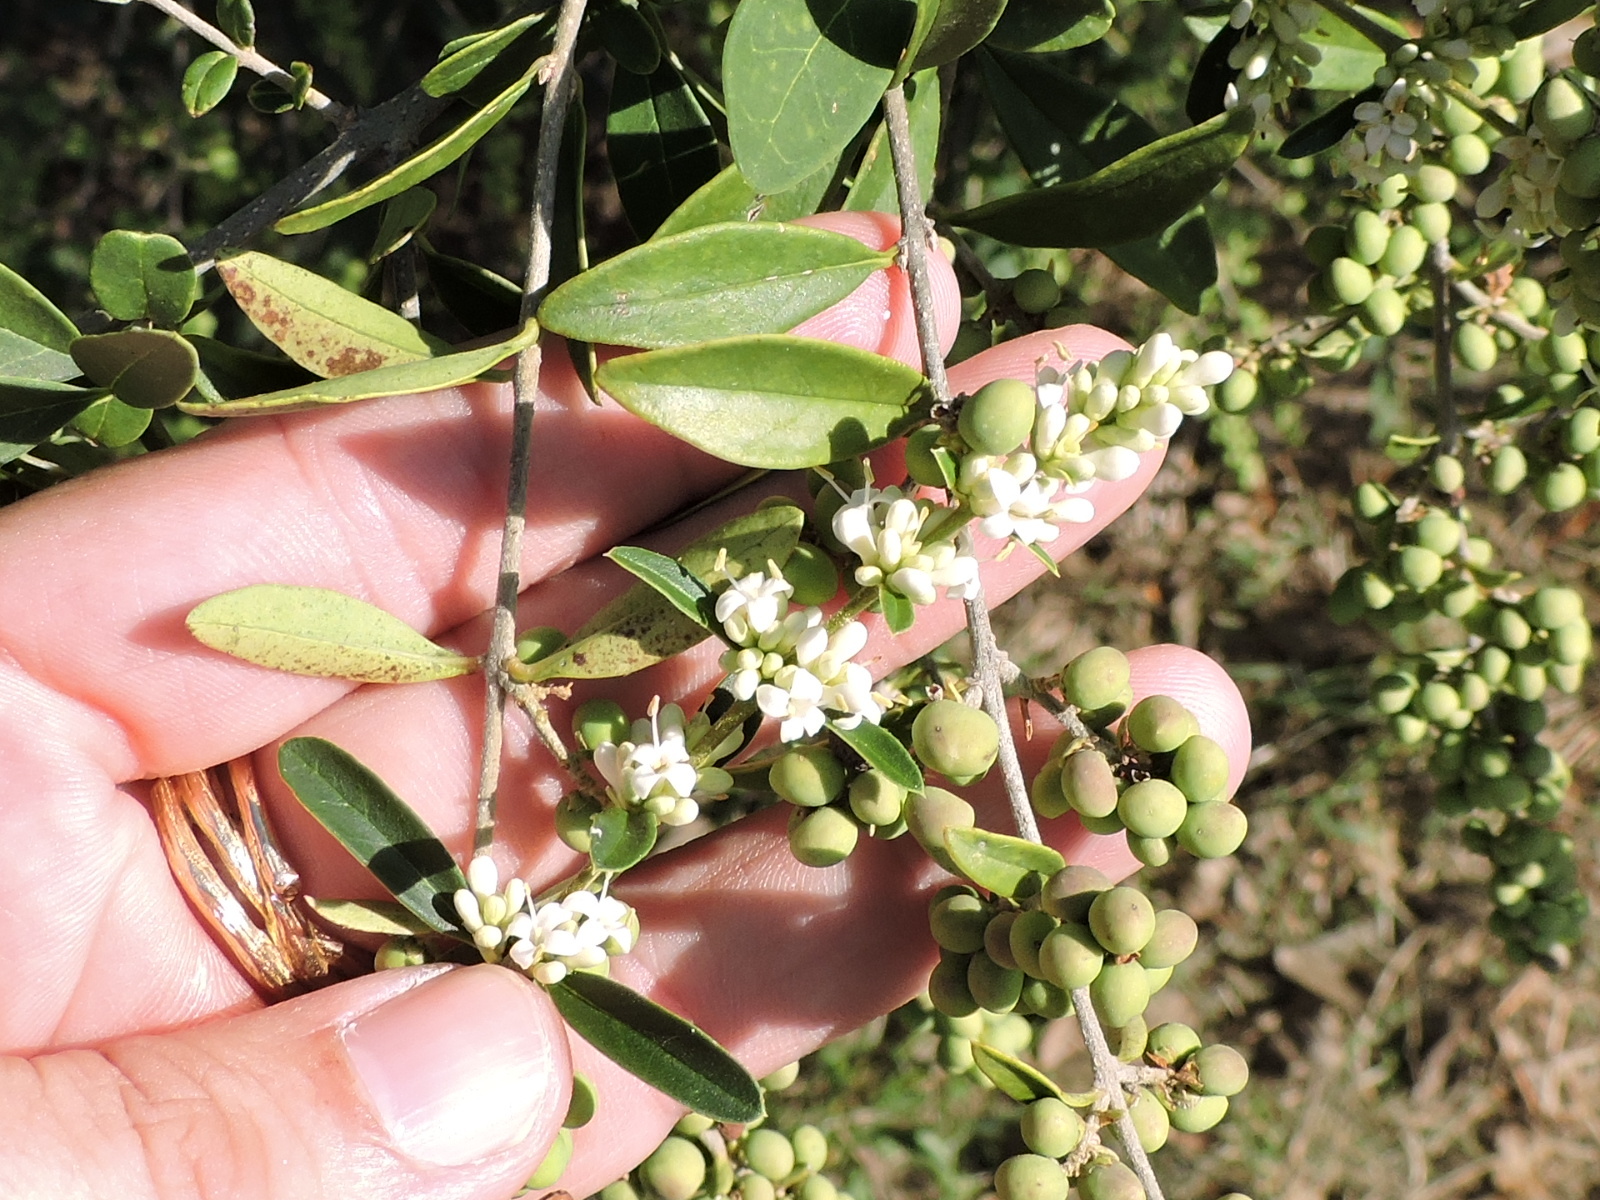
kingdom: Plantae
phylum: Tracheophyta
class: Magnoliopsida
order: Lamiales
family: Oleaceae
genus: Ligustrum
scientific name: Ligustrum quihoui
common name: Waxyleaf privet
